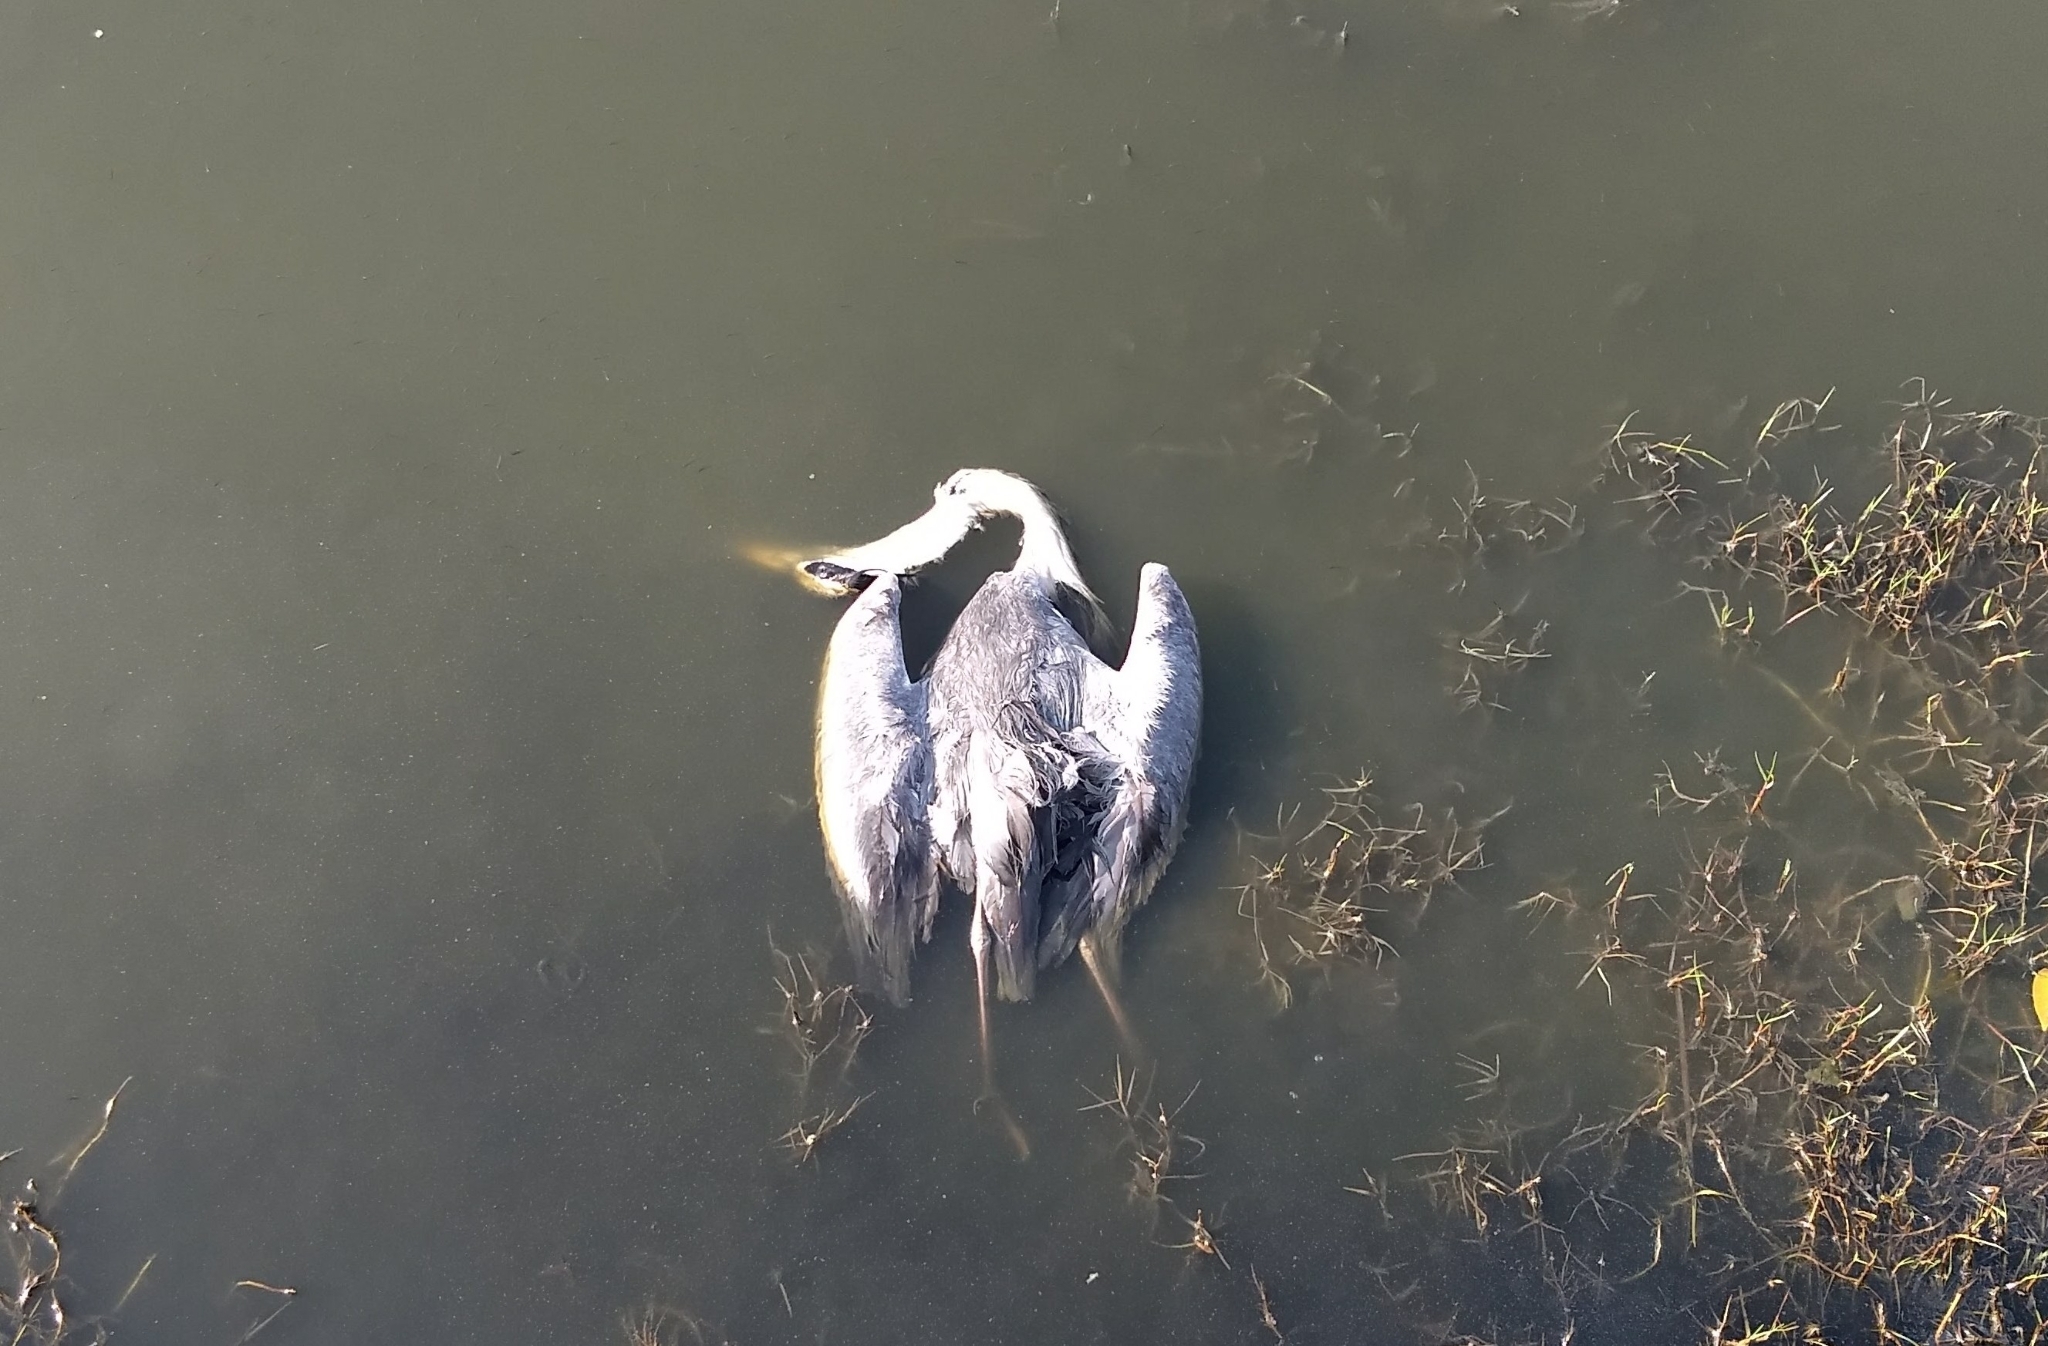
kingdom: Animalia
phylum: Chordata
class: Aves
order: Pelecaniformes
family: Ardeidae
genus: Ardea
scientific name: Ardea cinerea
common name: Grey heron
